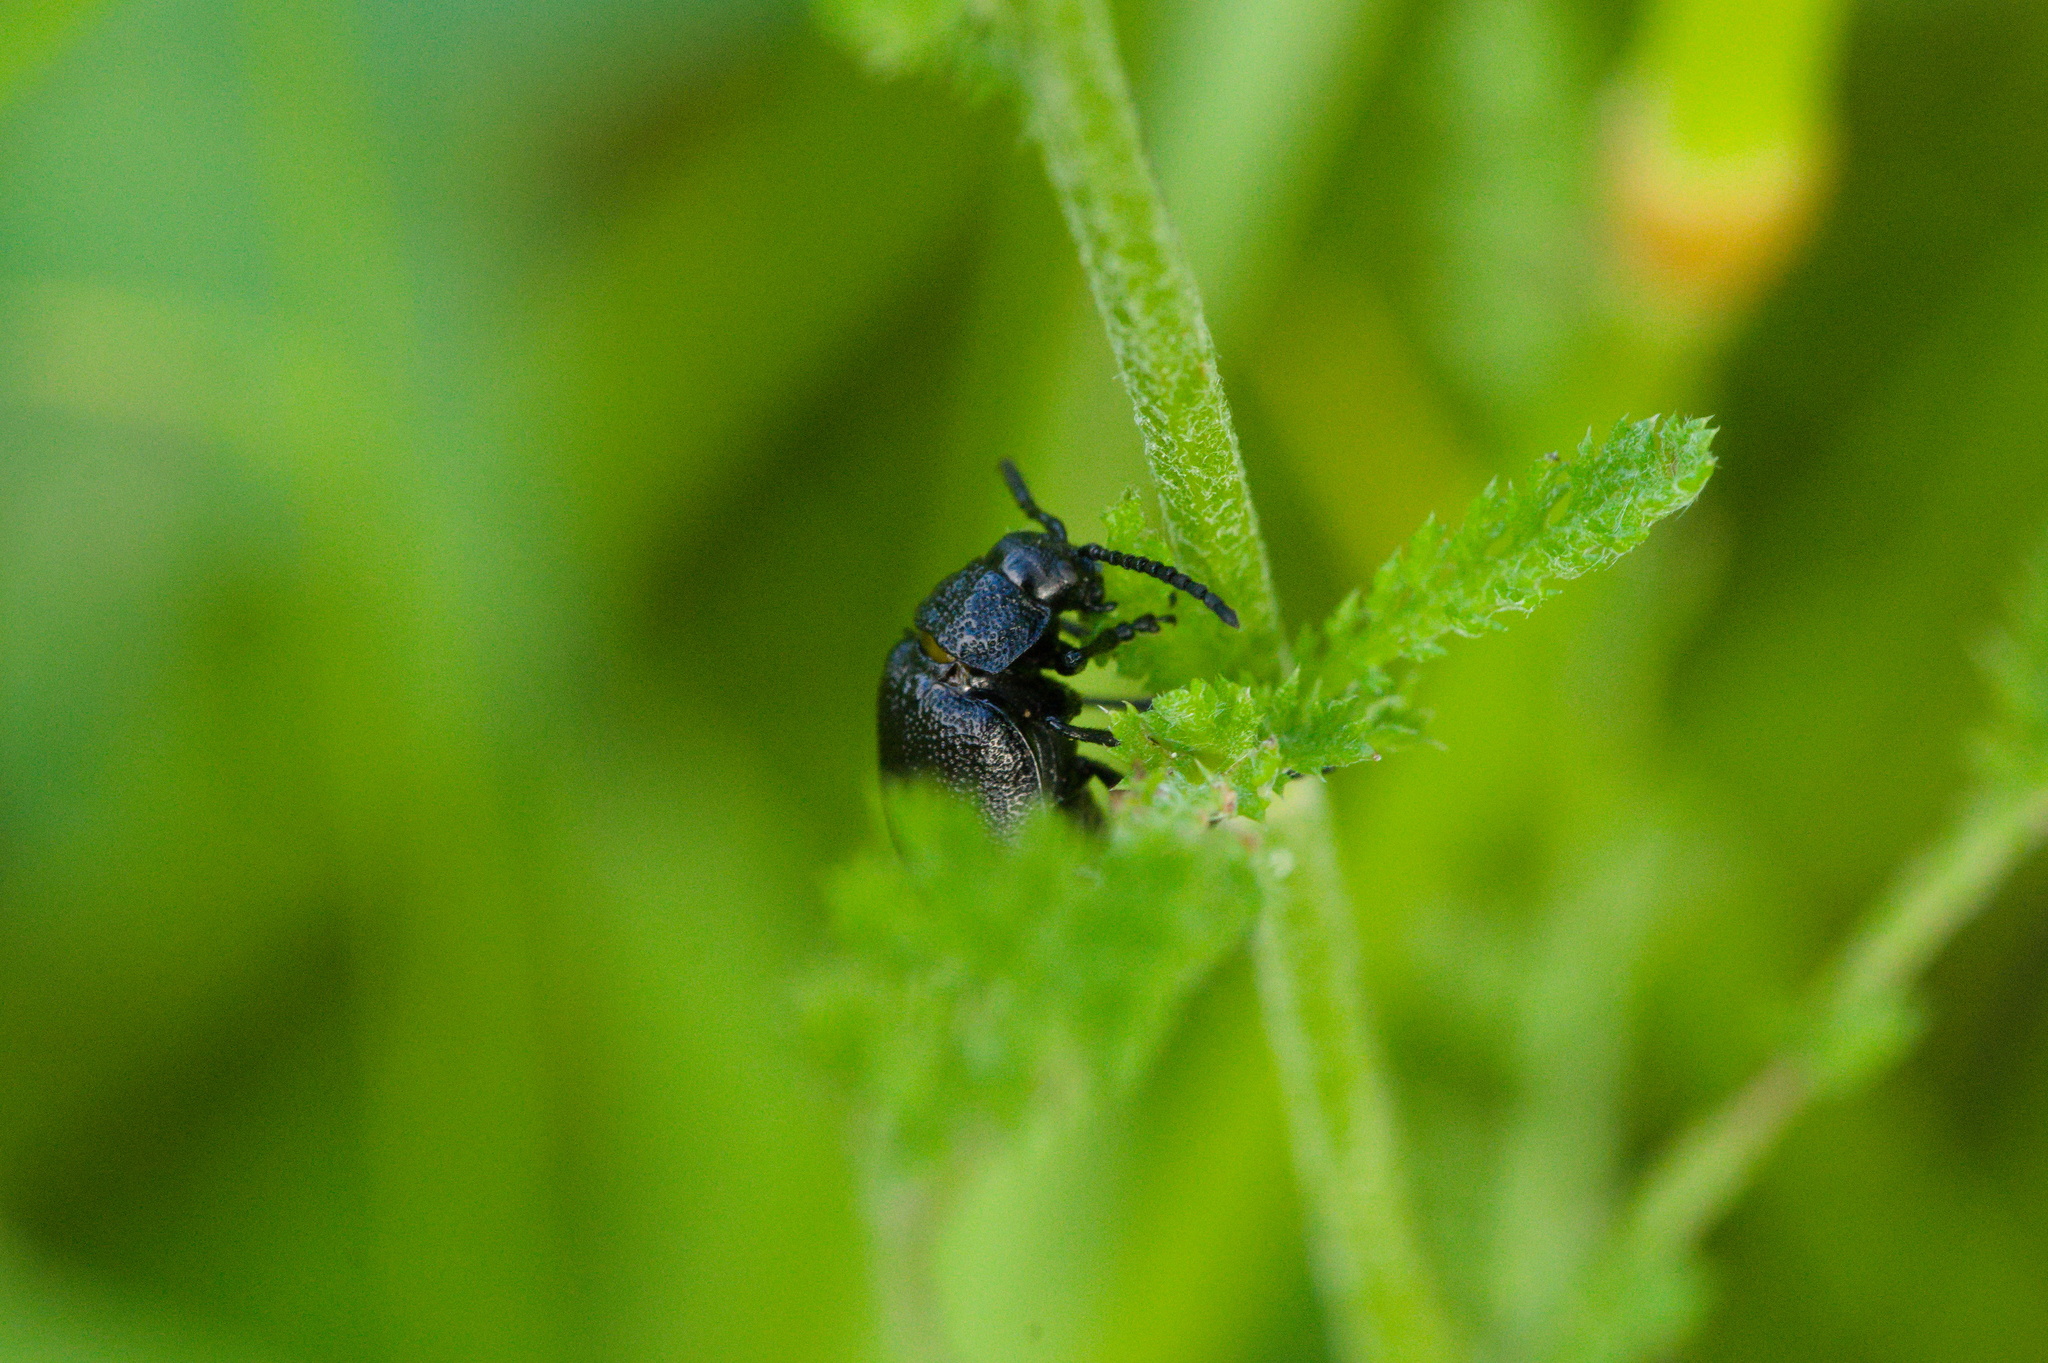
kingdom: Animalia
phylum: Arthropoda
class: Insecta
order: Coleoptera
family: Chrysomelidae
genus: Galeruca
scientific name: Galeruca tanaceti
